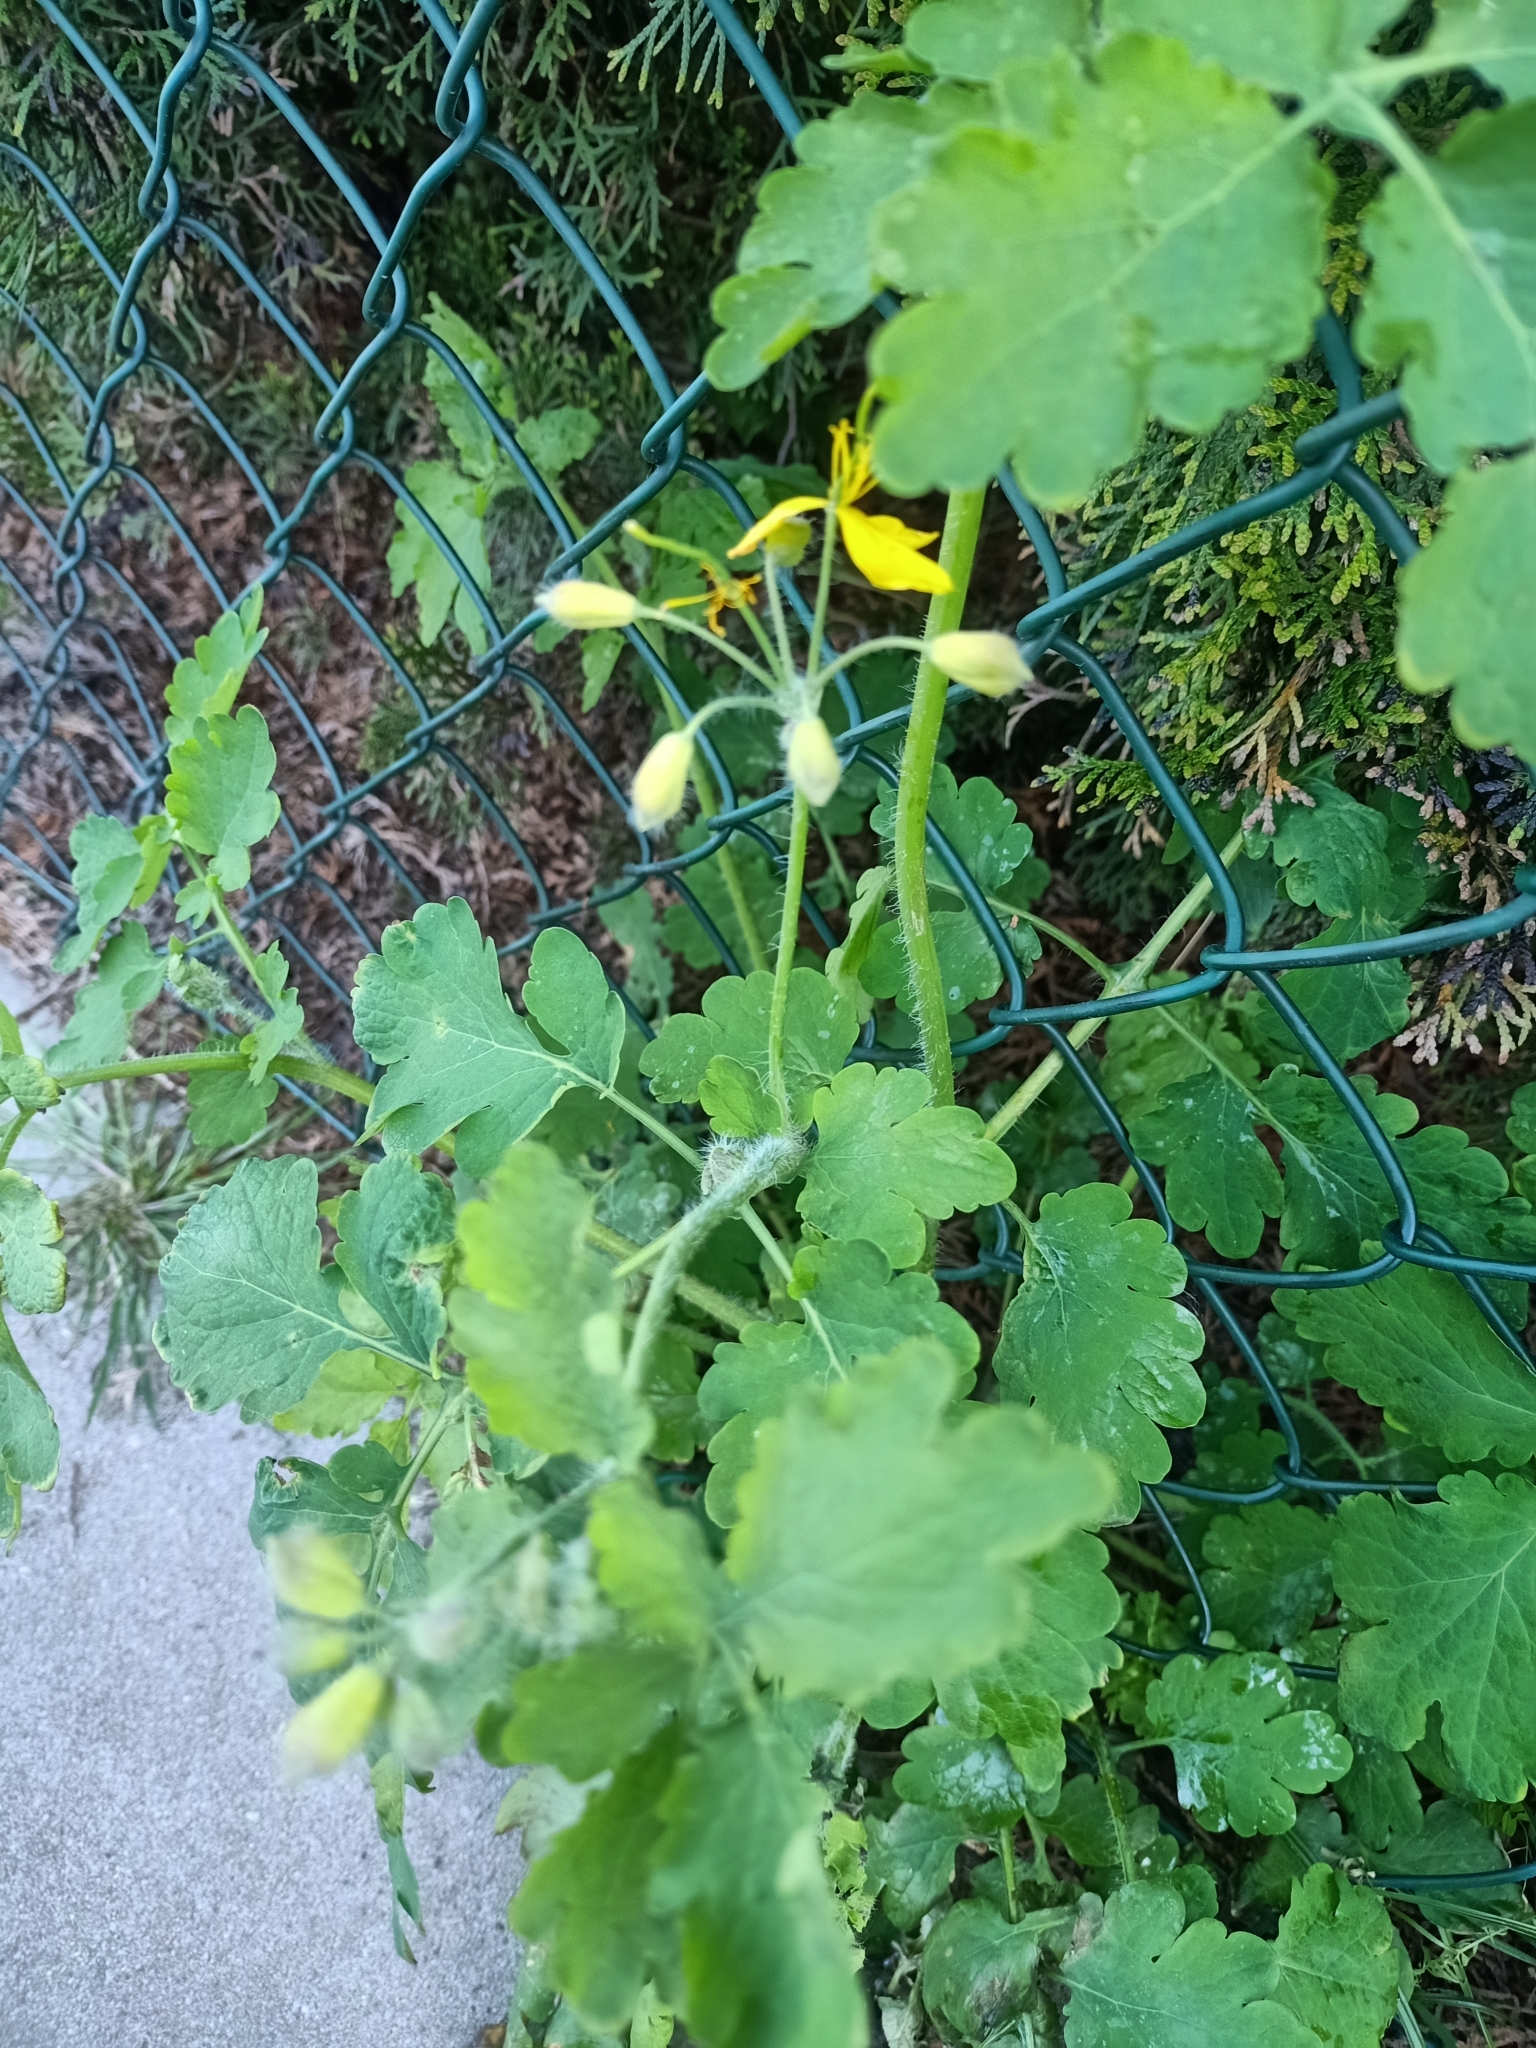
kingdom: Plantae
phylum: Tracheophyta
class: Magnoliopsida
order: Ranunculales
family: Papaveraceae
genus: Chelidonium
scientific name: Chelidonium majus
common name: Greater celandine
